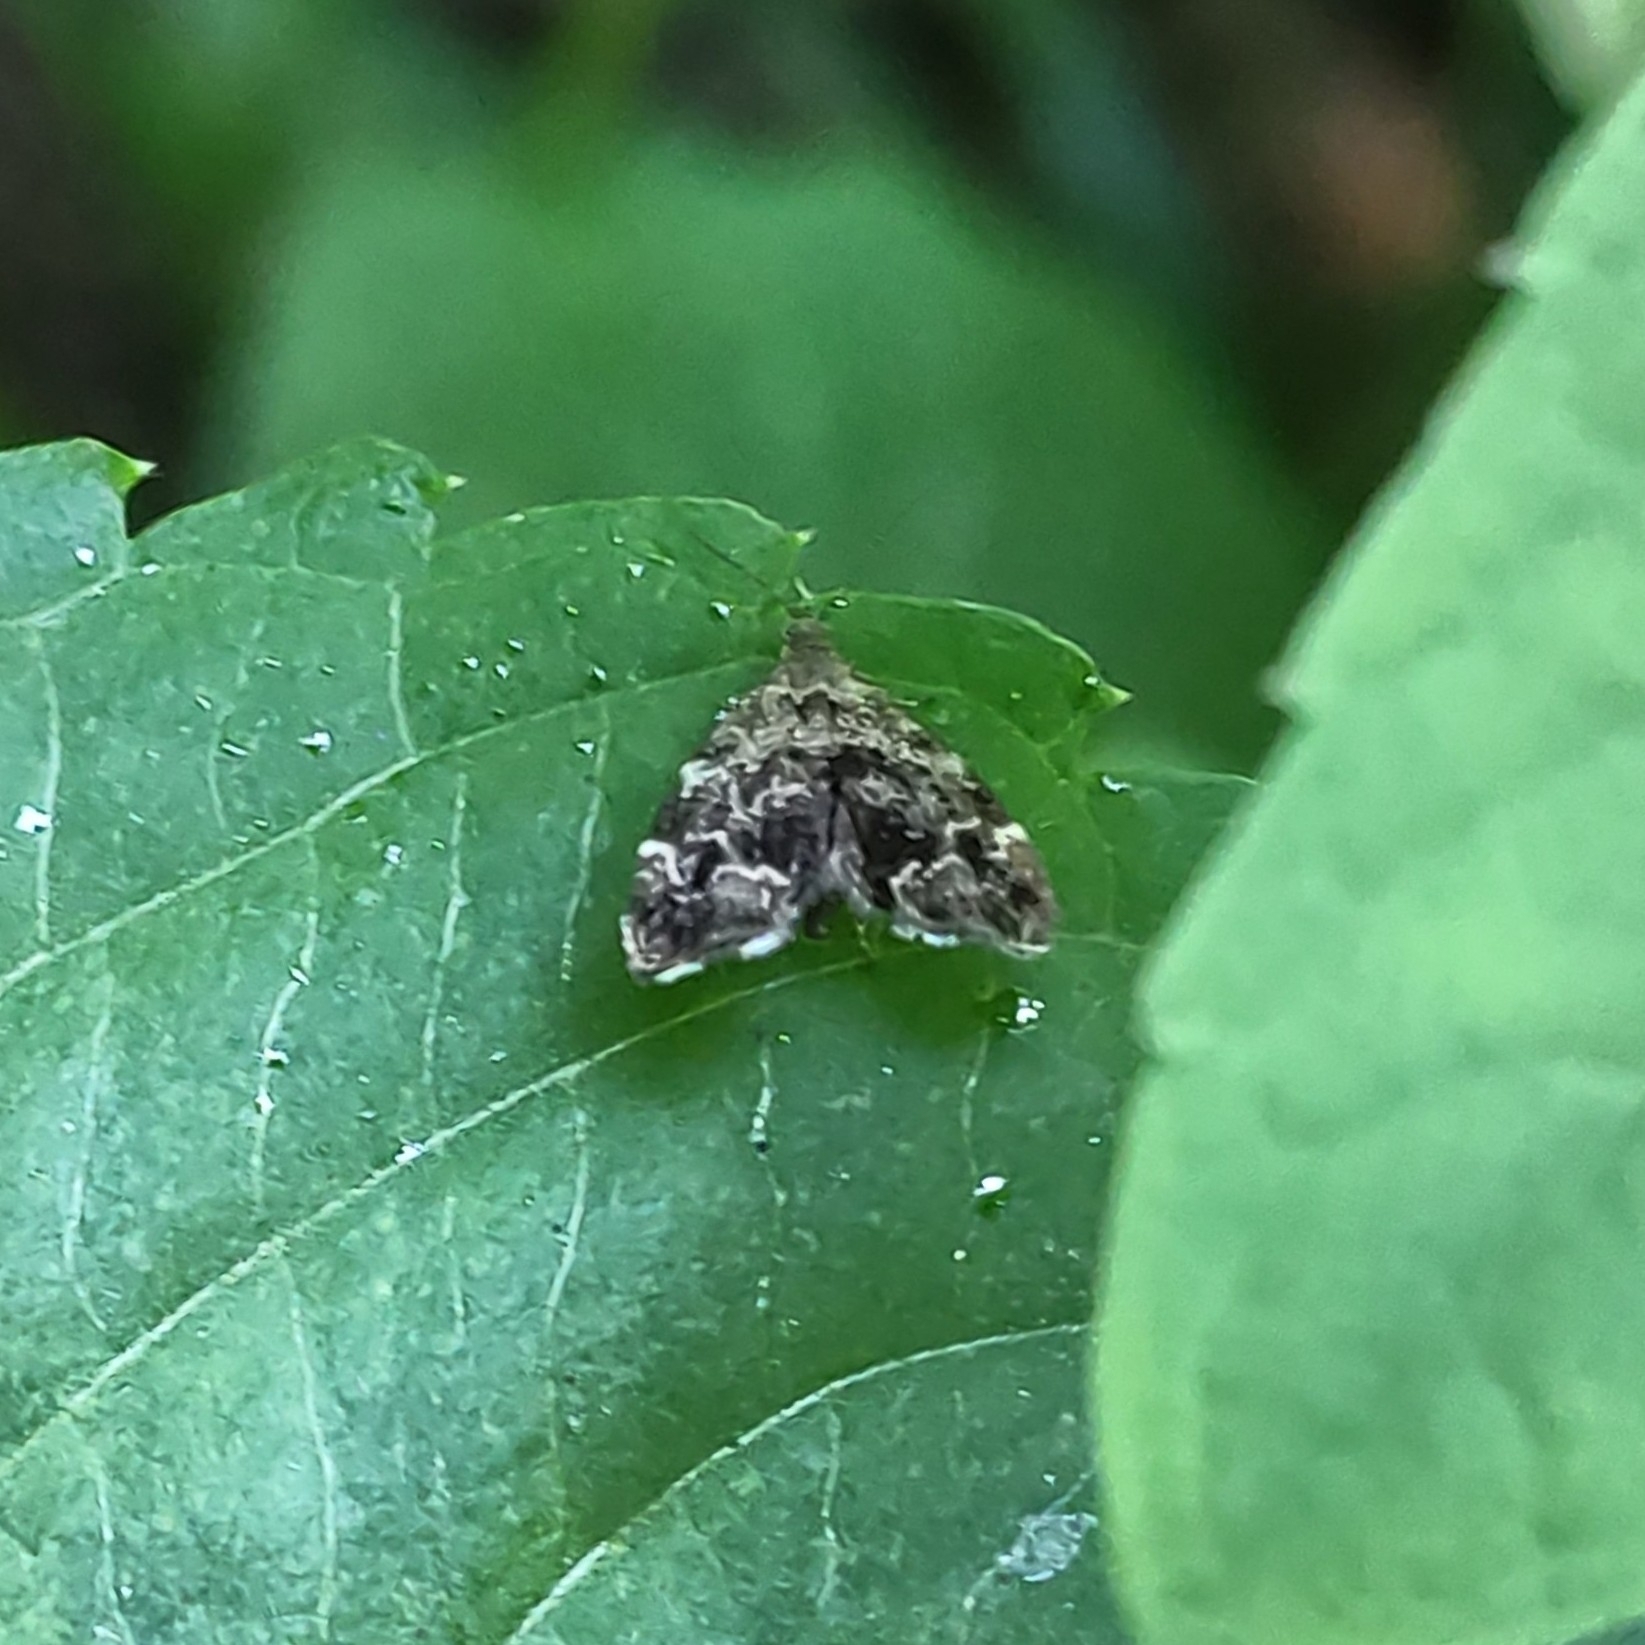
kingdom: Animalia
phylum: Arthropoda
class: Insecta
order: Lepidoptera
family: Choreutidae
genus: Anthophila
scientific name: Anthophila fabriciana
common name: Nettle-tap
